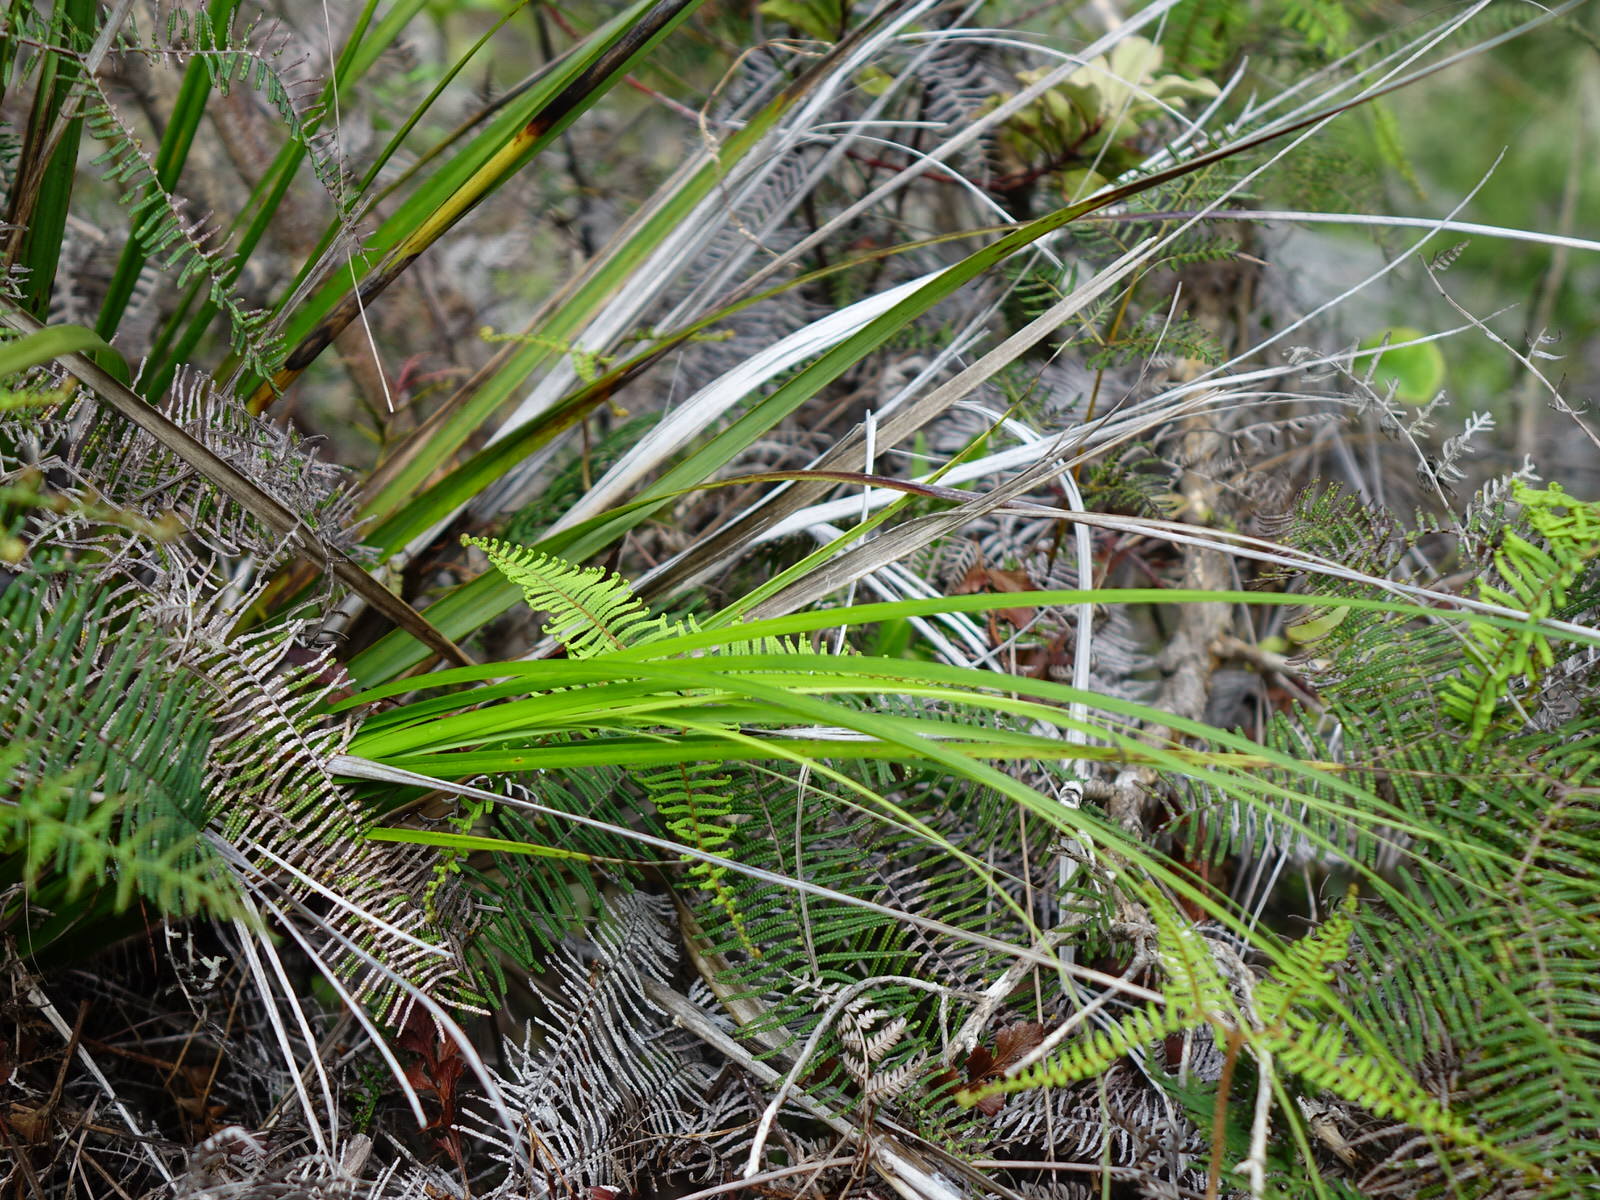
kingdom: Plantae
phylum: Tracheophyta
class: Liliopsida
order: Poales
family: Cyperaceae
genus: Gahnia
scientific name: Gahnia setifolia
